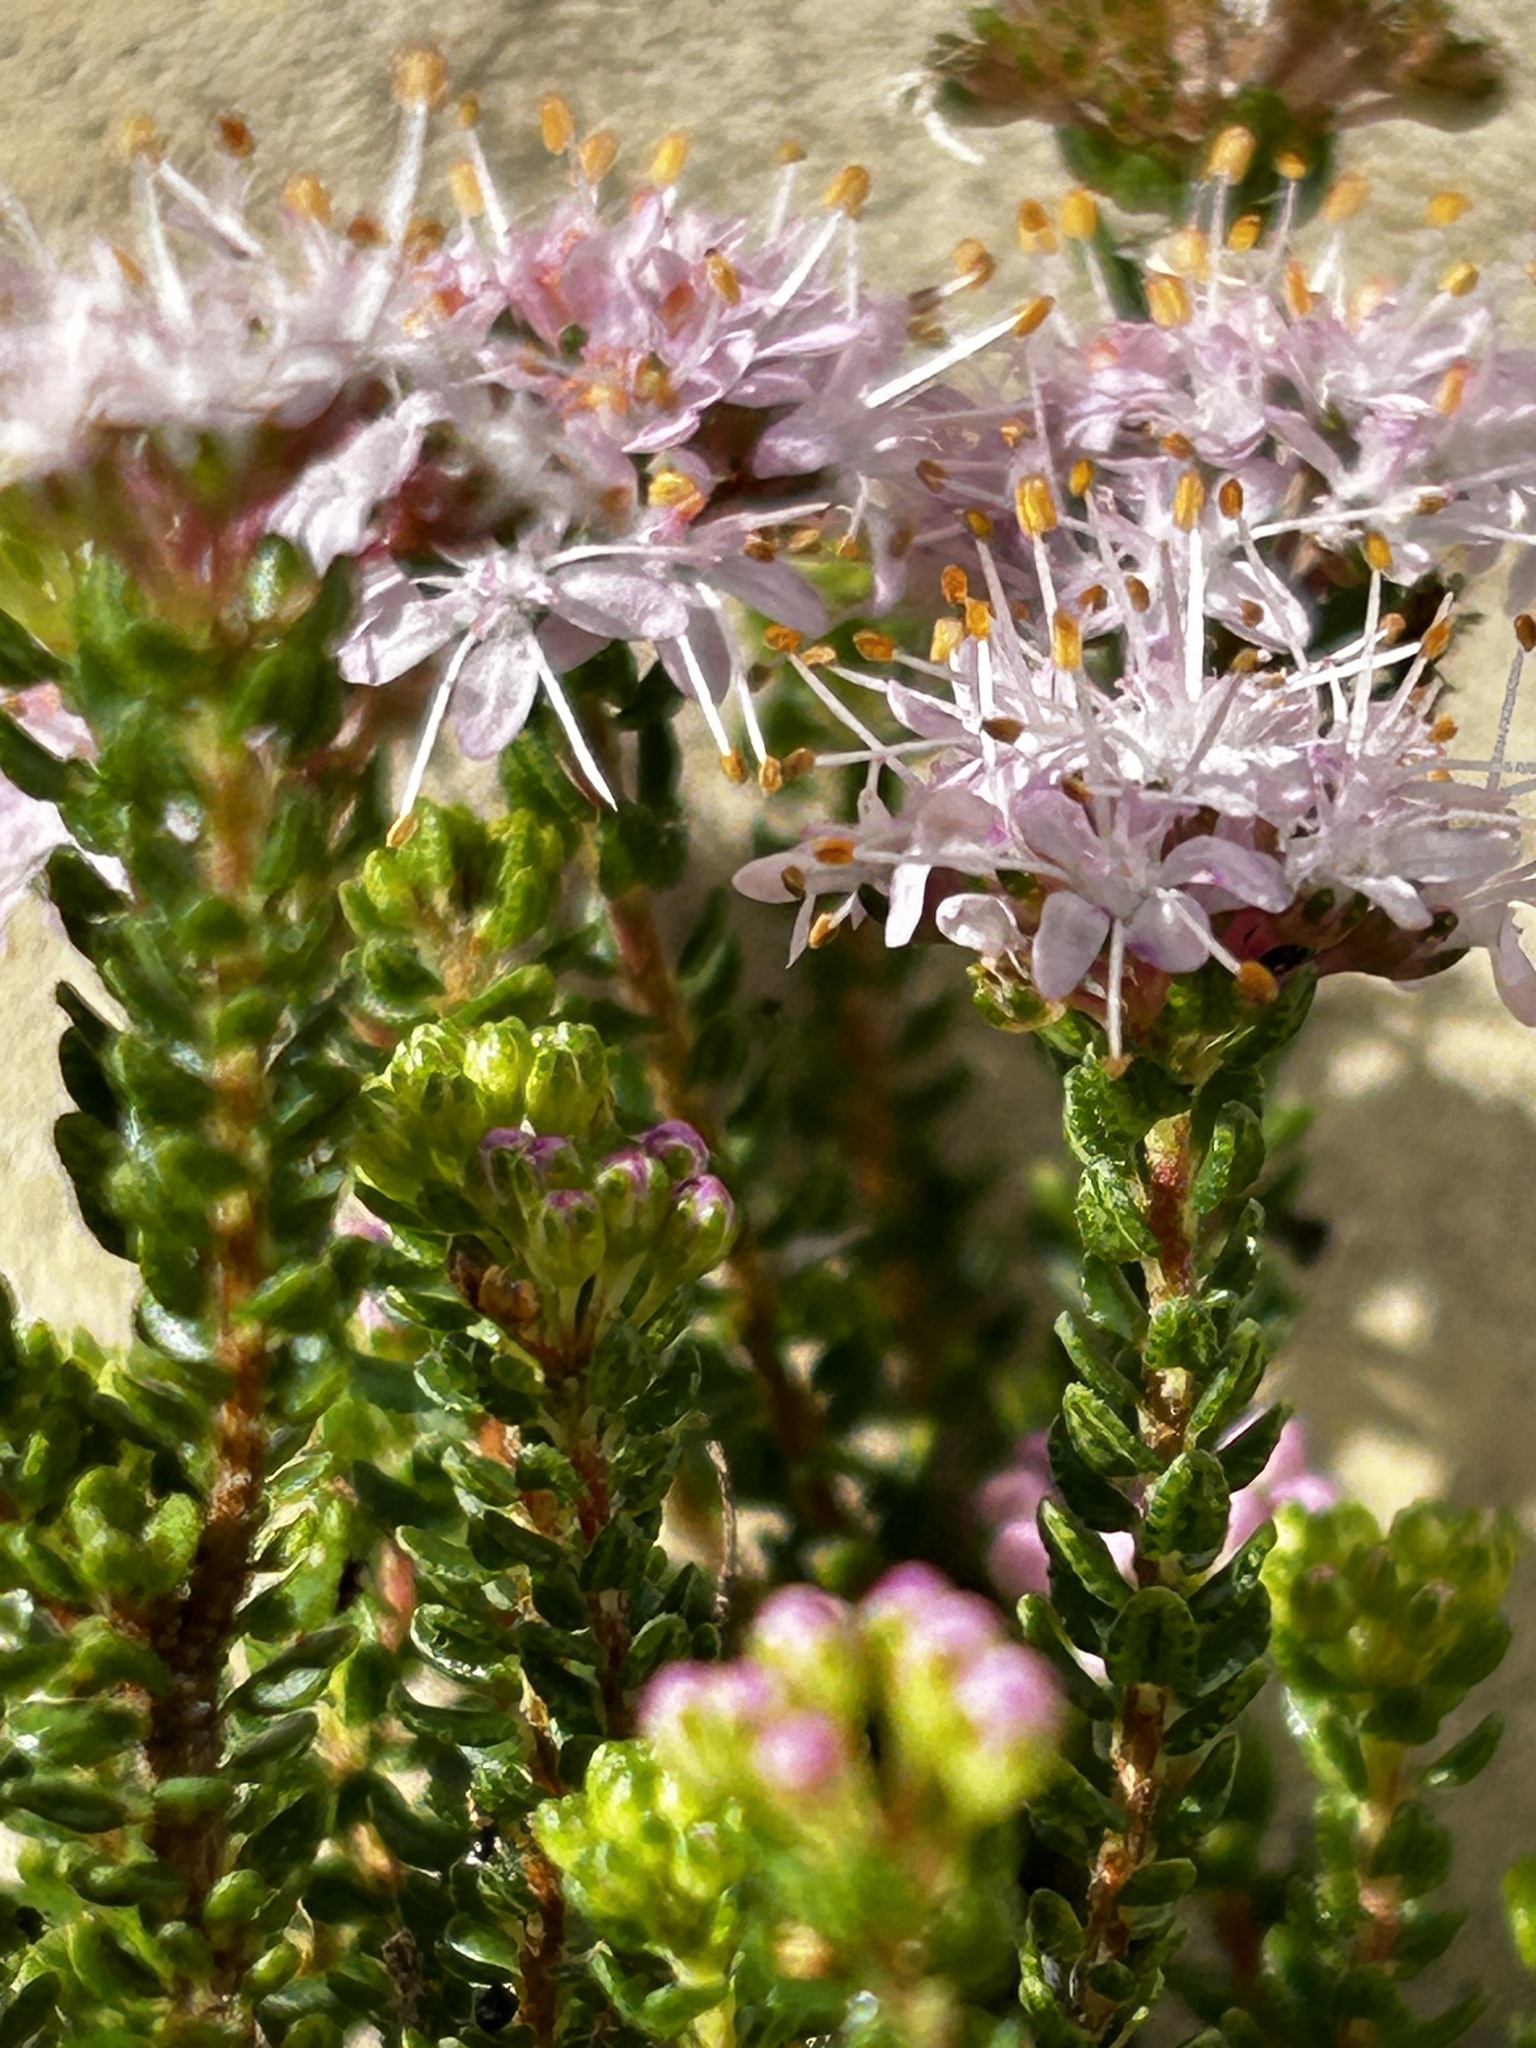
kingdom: Plantae
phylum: Tracheophyta
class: Magnoliopsida
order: Sapindales
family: Rutaceae
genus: Agathosma
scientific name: Agathosma capensis
